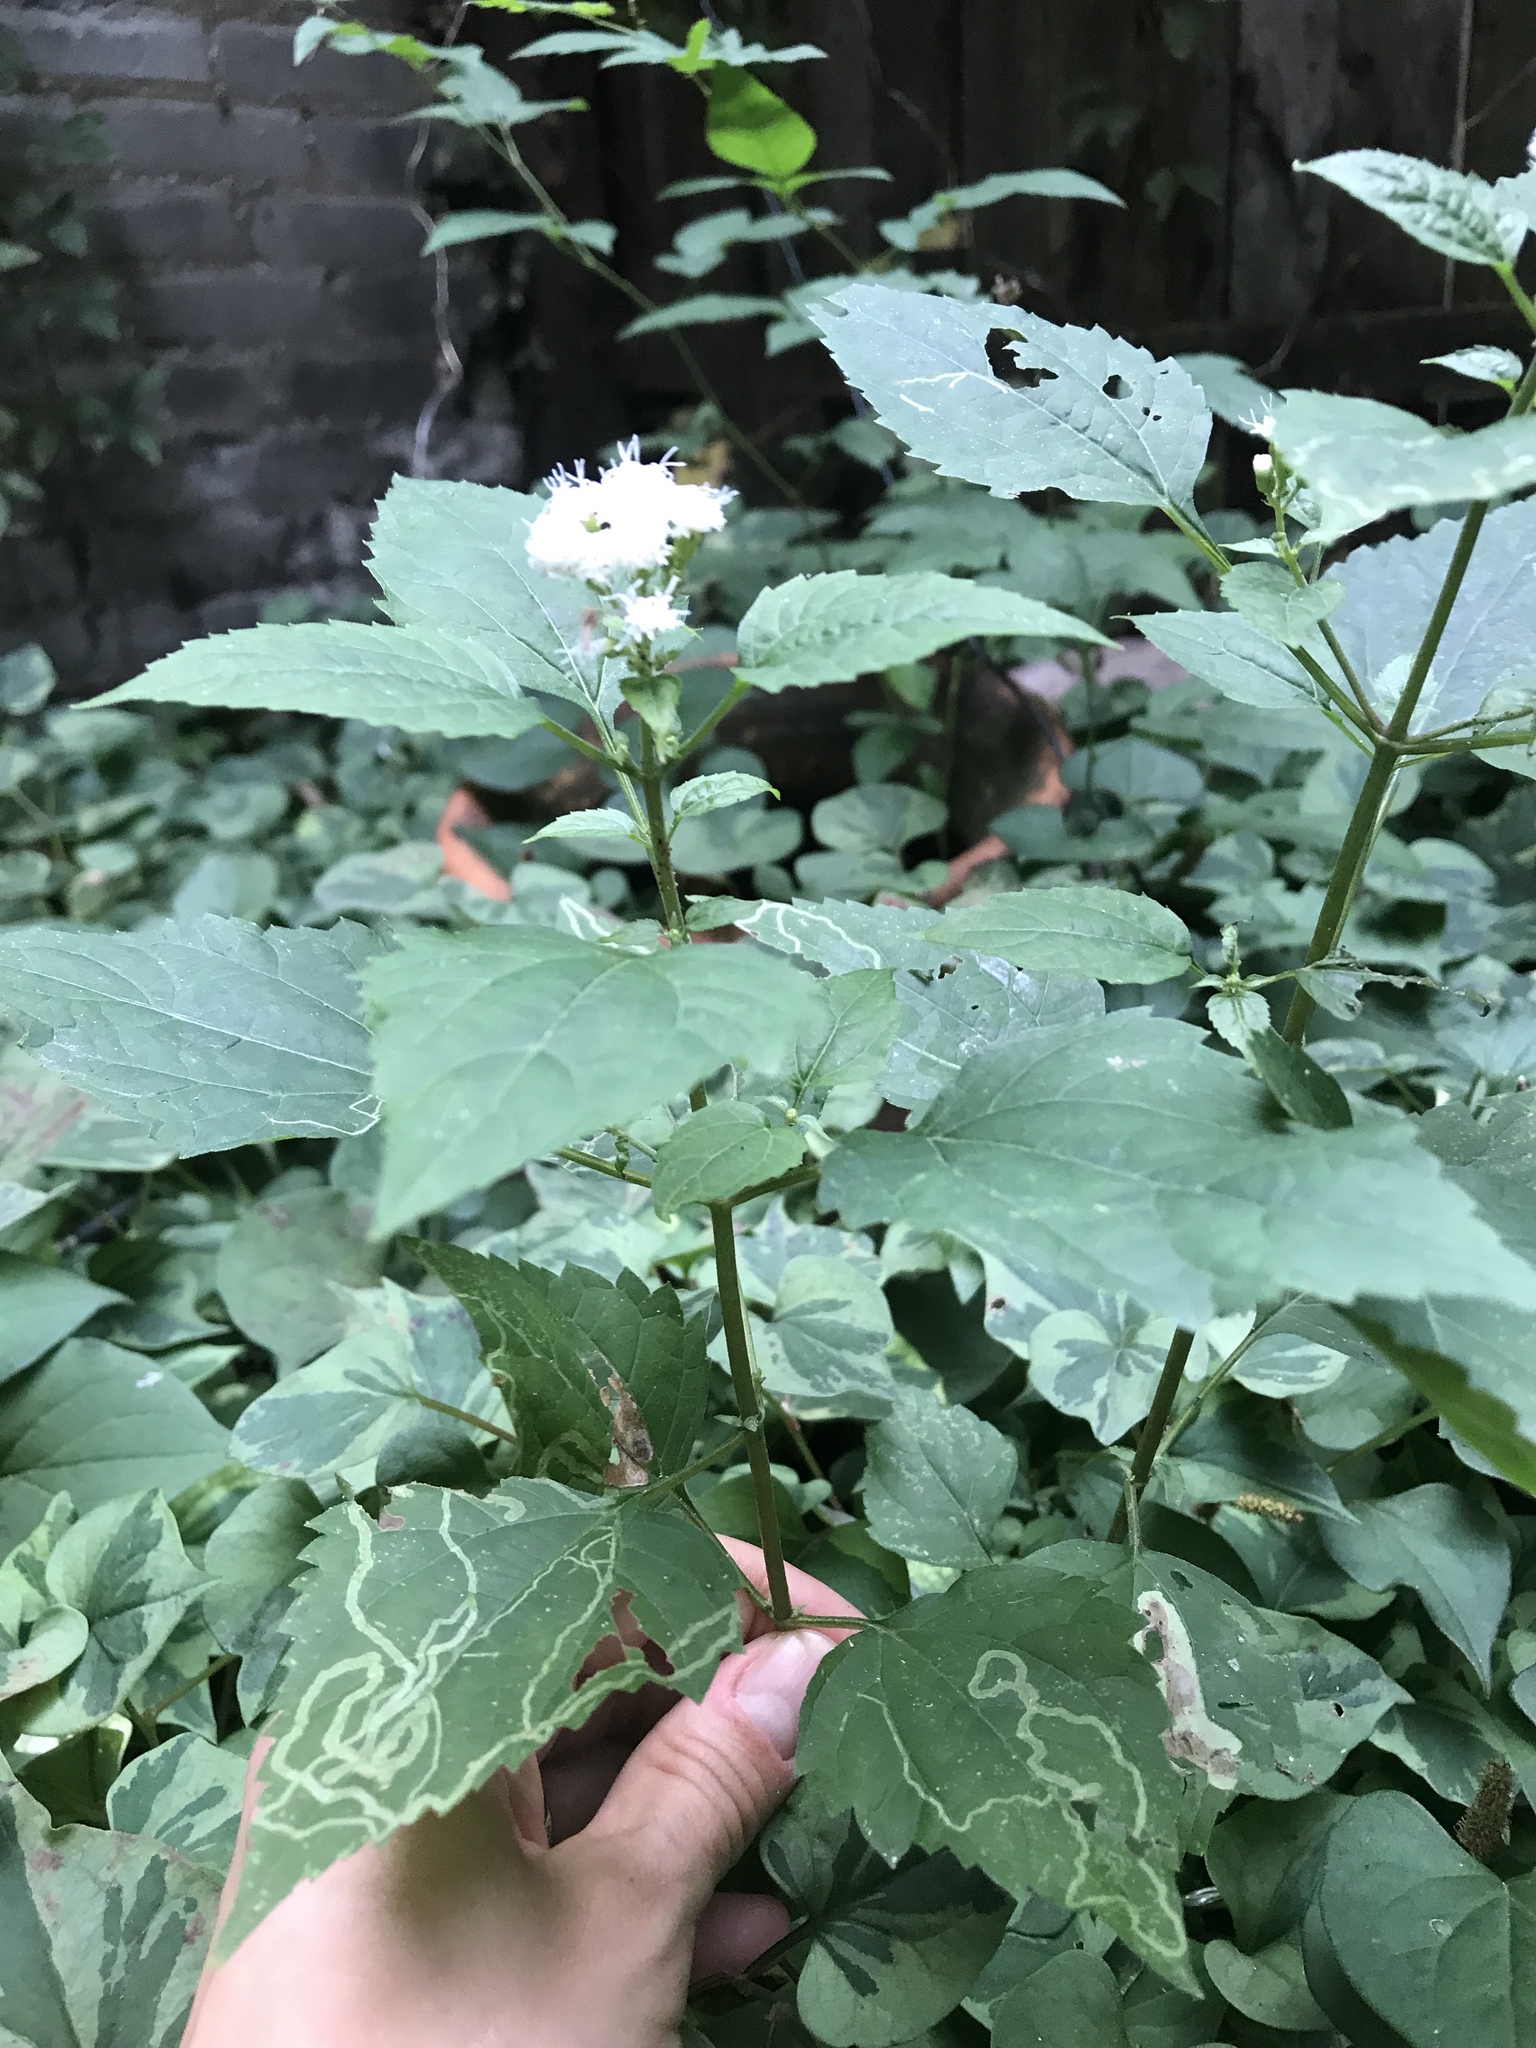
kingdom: Plantae
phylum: Tracheophyta
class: Magnoliopsida
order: Asterales
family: Asteraceae
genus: Ageratina
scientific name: Ageratina altissima
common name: White snakeroot
